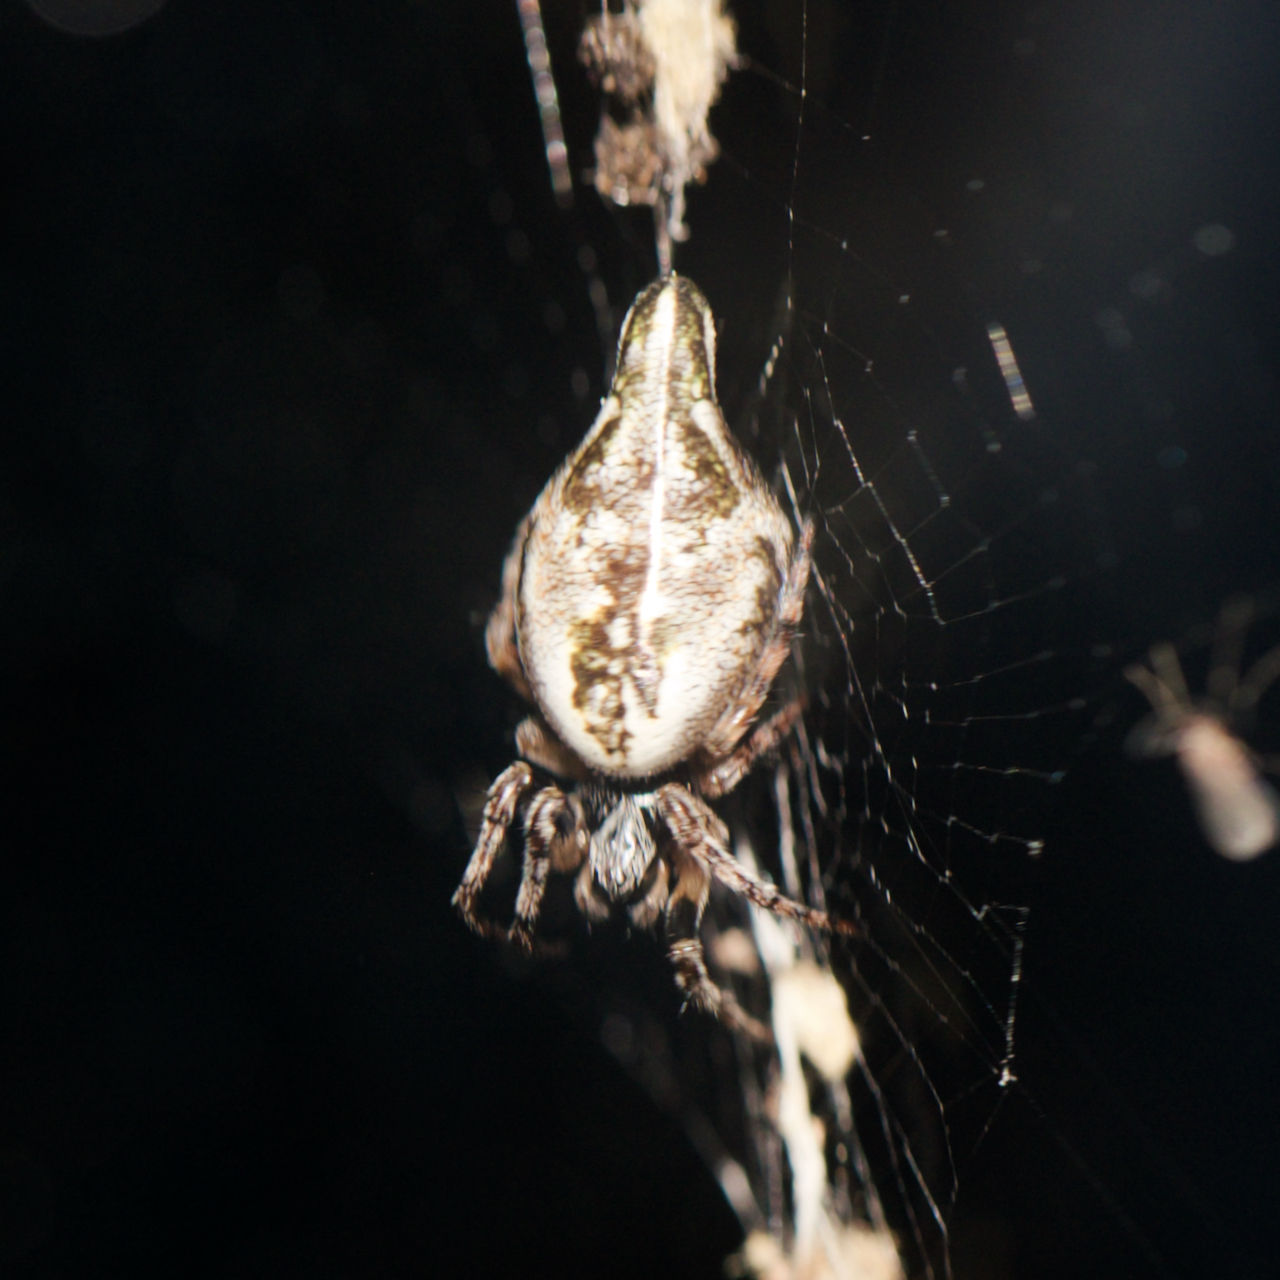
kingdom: Animalia
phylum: Arthropoda
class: Arachnida
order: Araneae
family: Araneidae
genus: Cyclosa
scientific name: Cyclosa conica
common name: Conical trashline orbweaver
